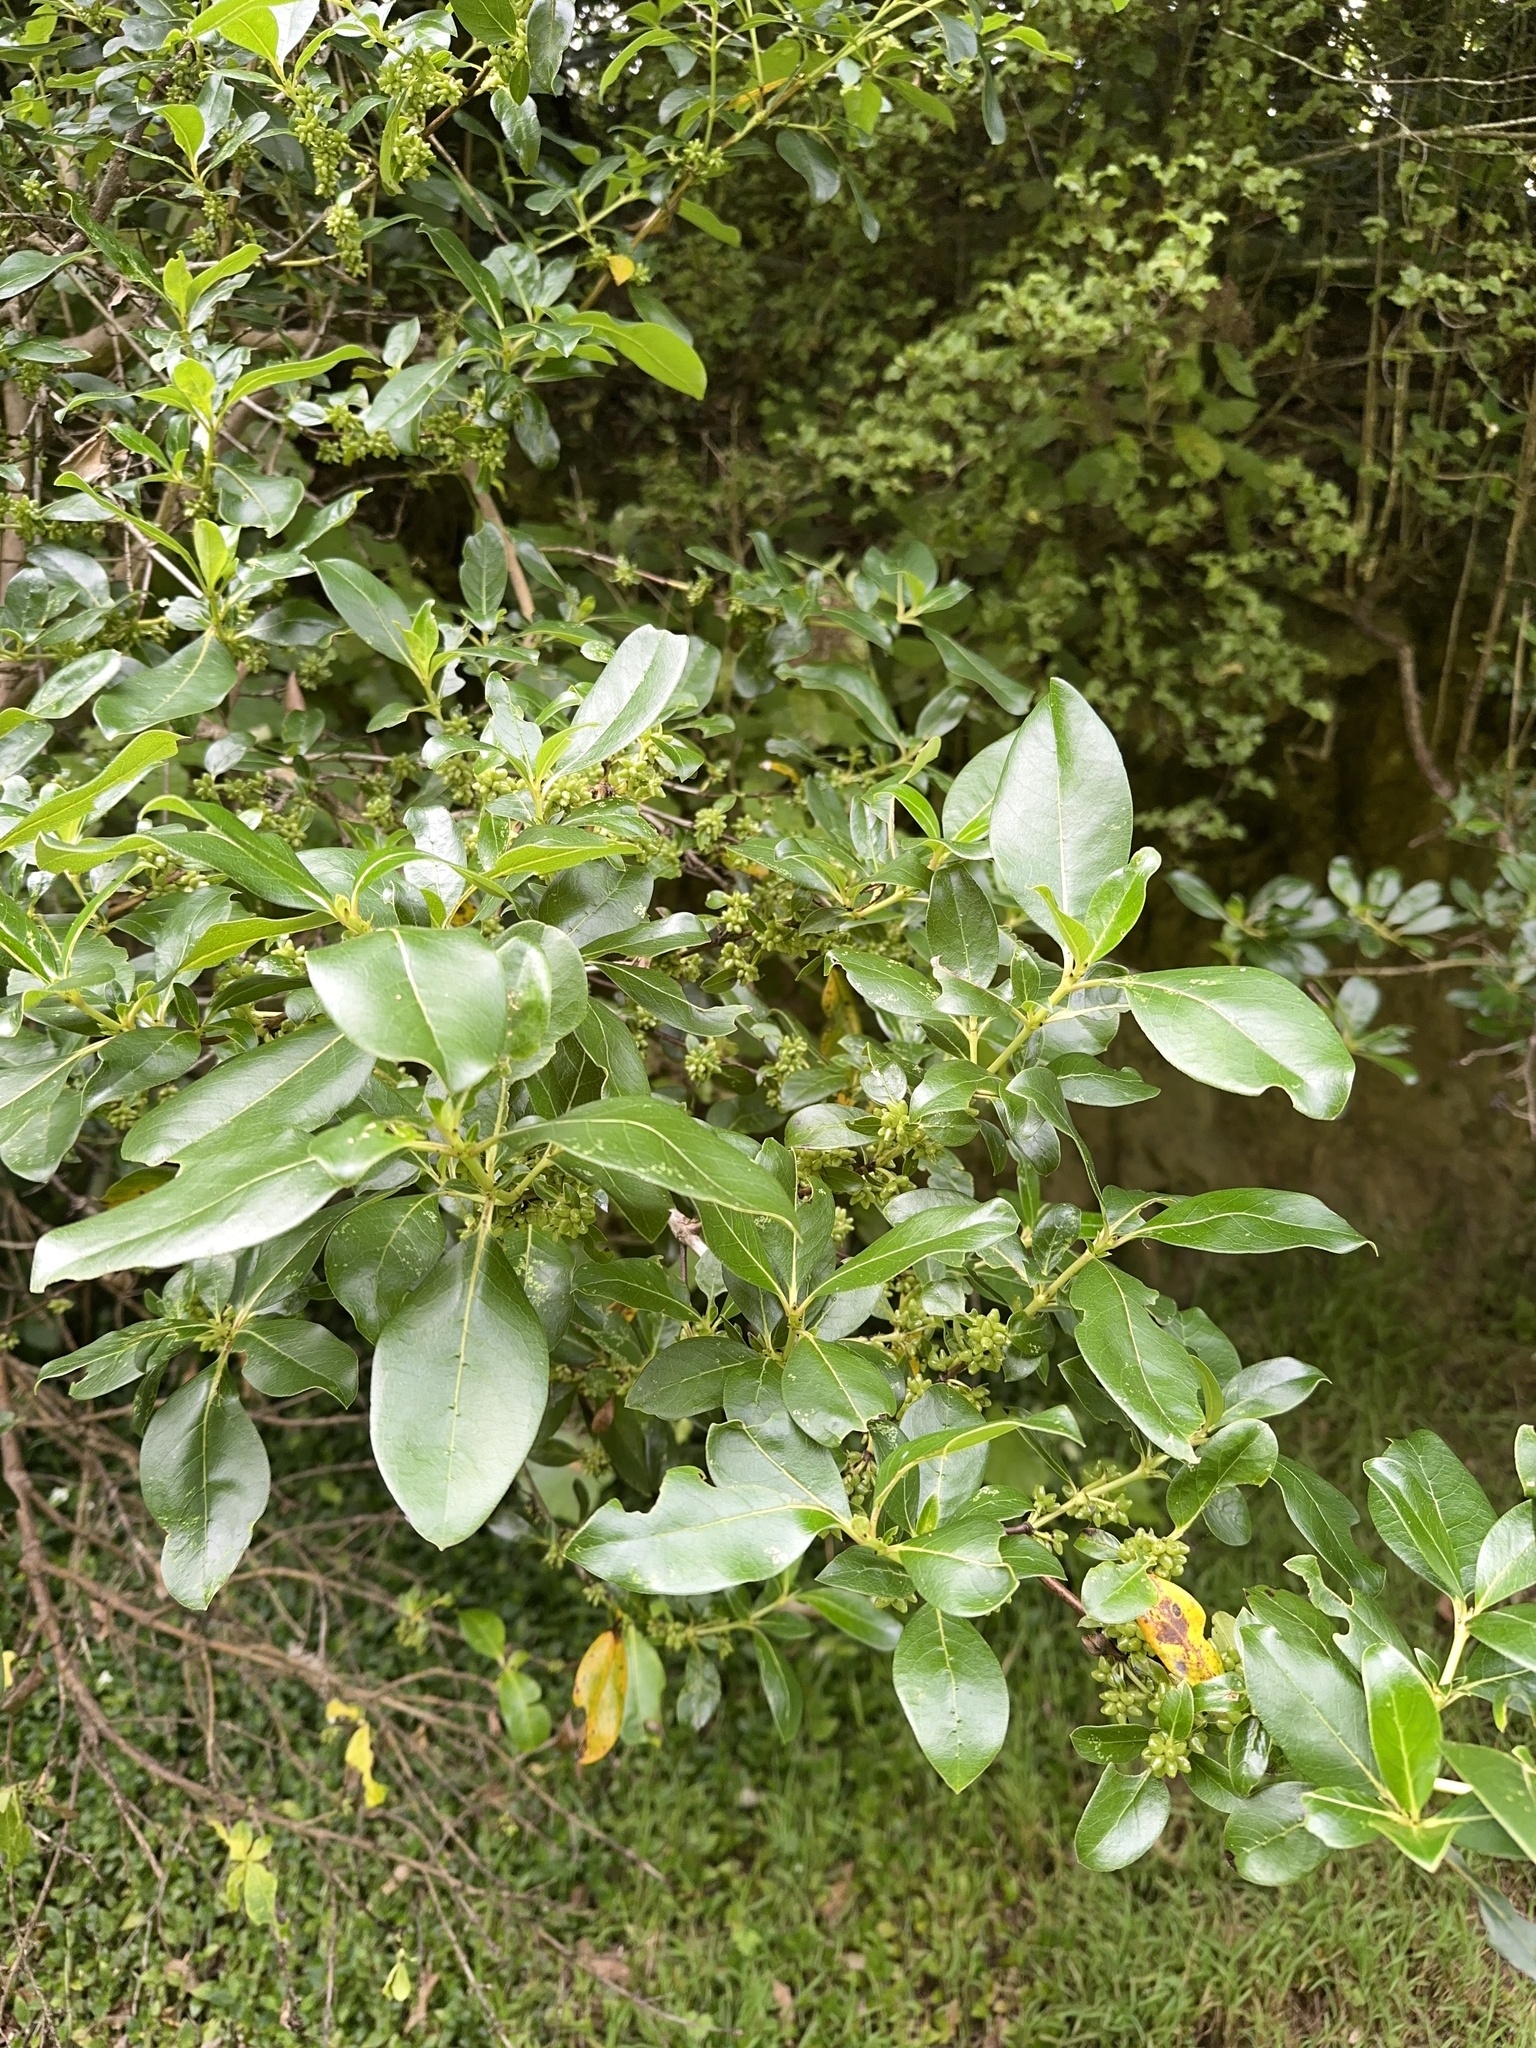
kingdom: Plantae
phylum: Tracheophyta
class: Magnoliopsida
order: Gentianales
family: Rubiaceae
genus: Coprosma
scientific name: Coprosma robusta
